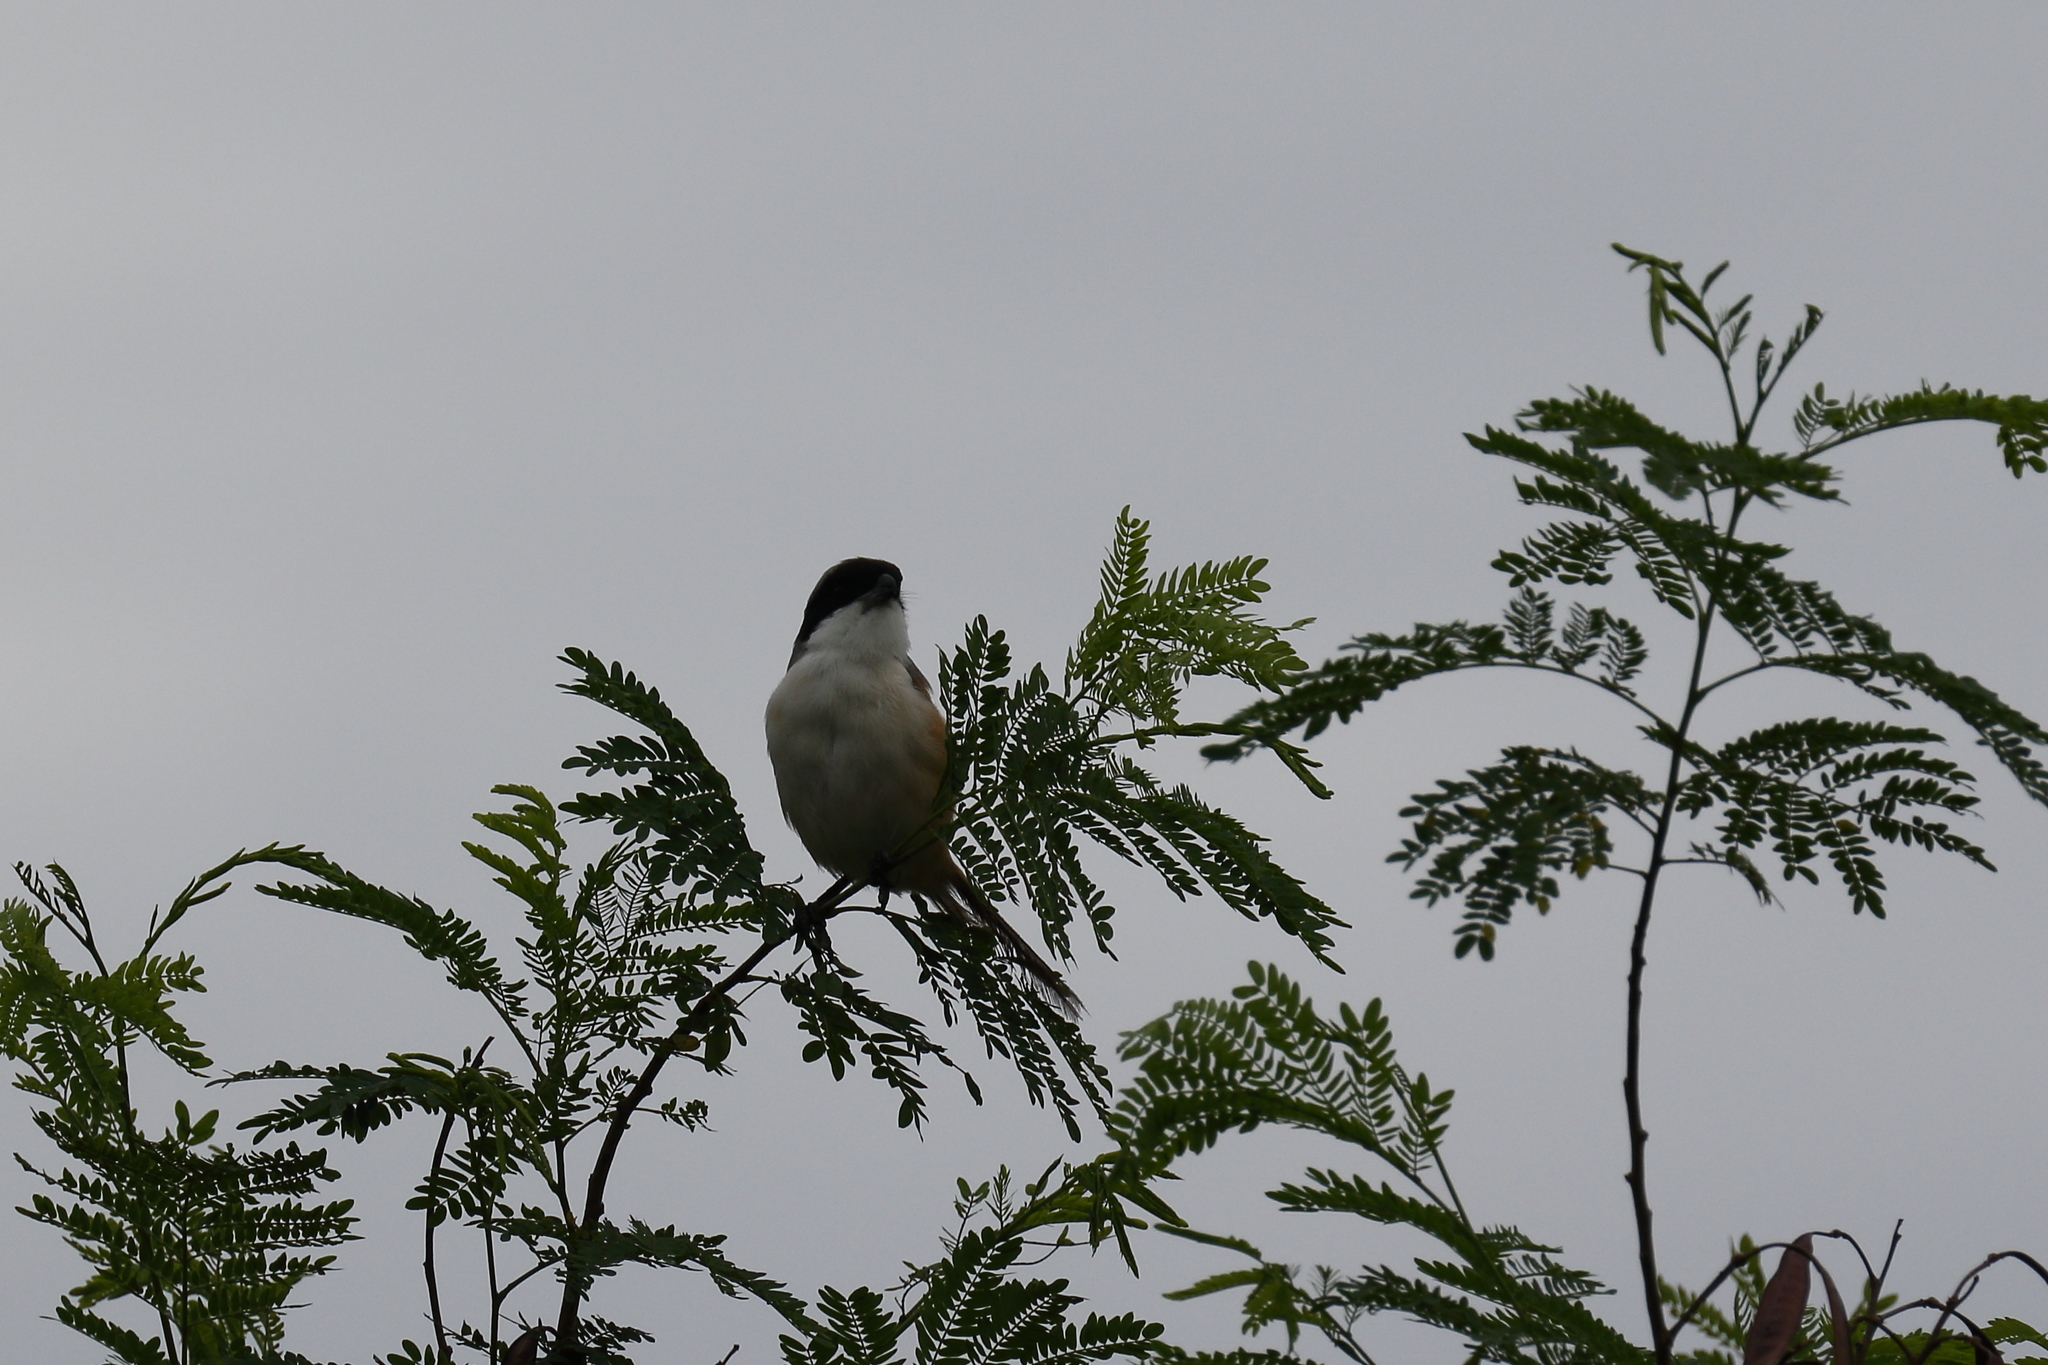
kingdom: Animalia
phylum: Chordata
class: Aves
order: Passeriformes
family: Laniidae
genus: Lanius
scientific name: Lanius schach
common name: Long-tailed shrike
